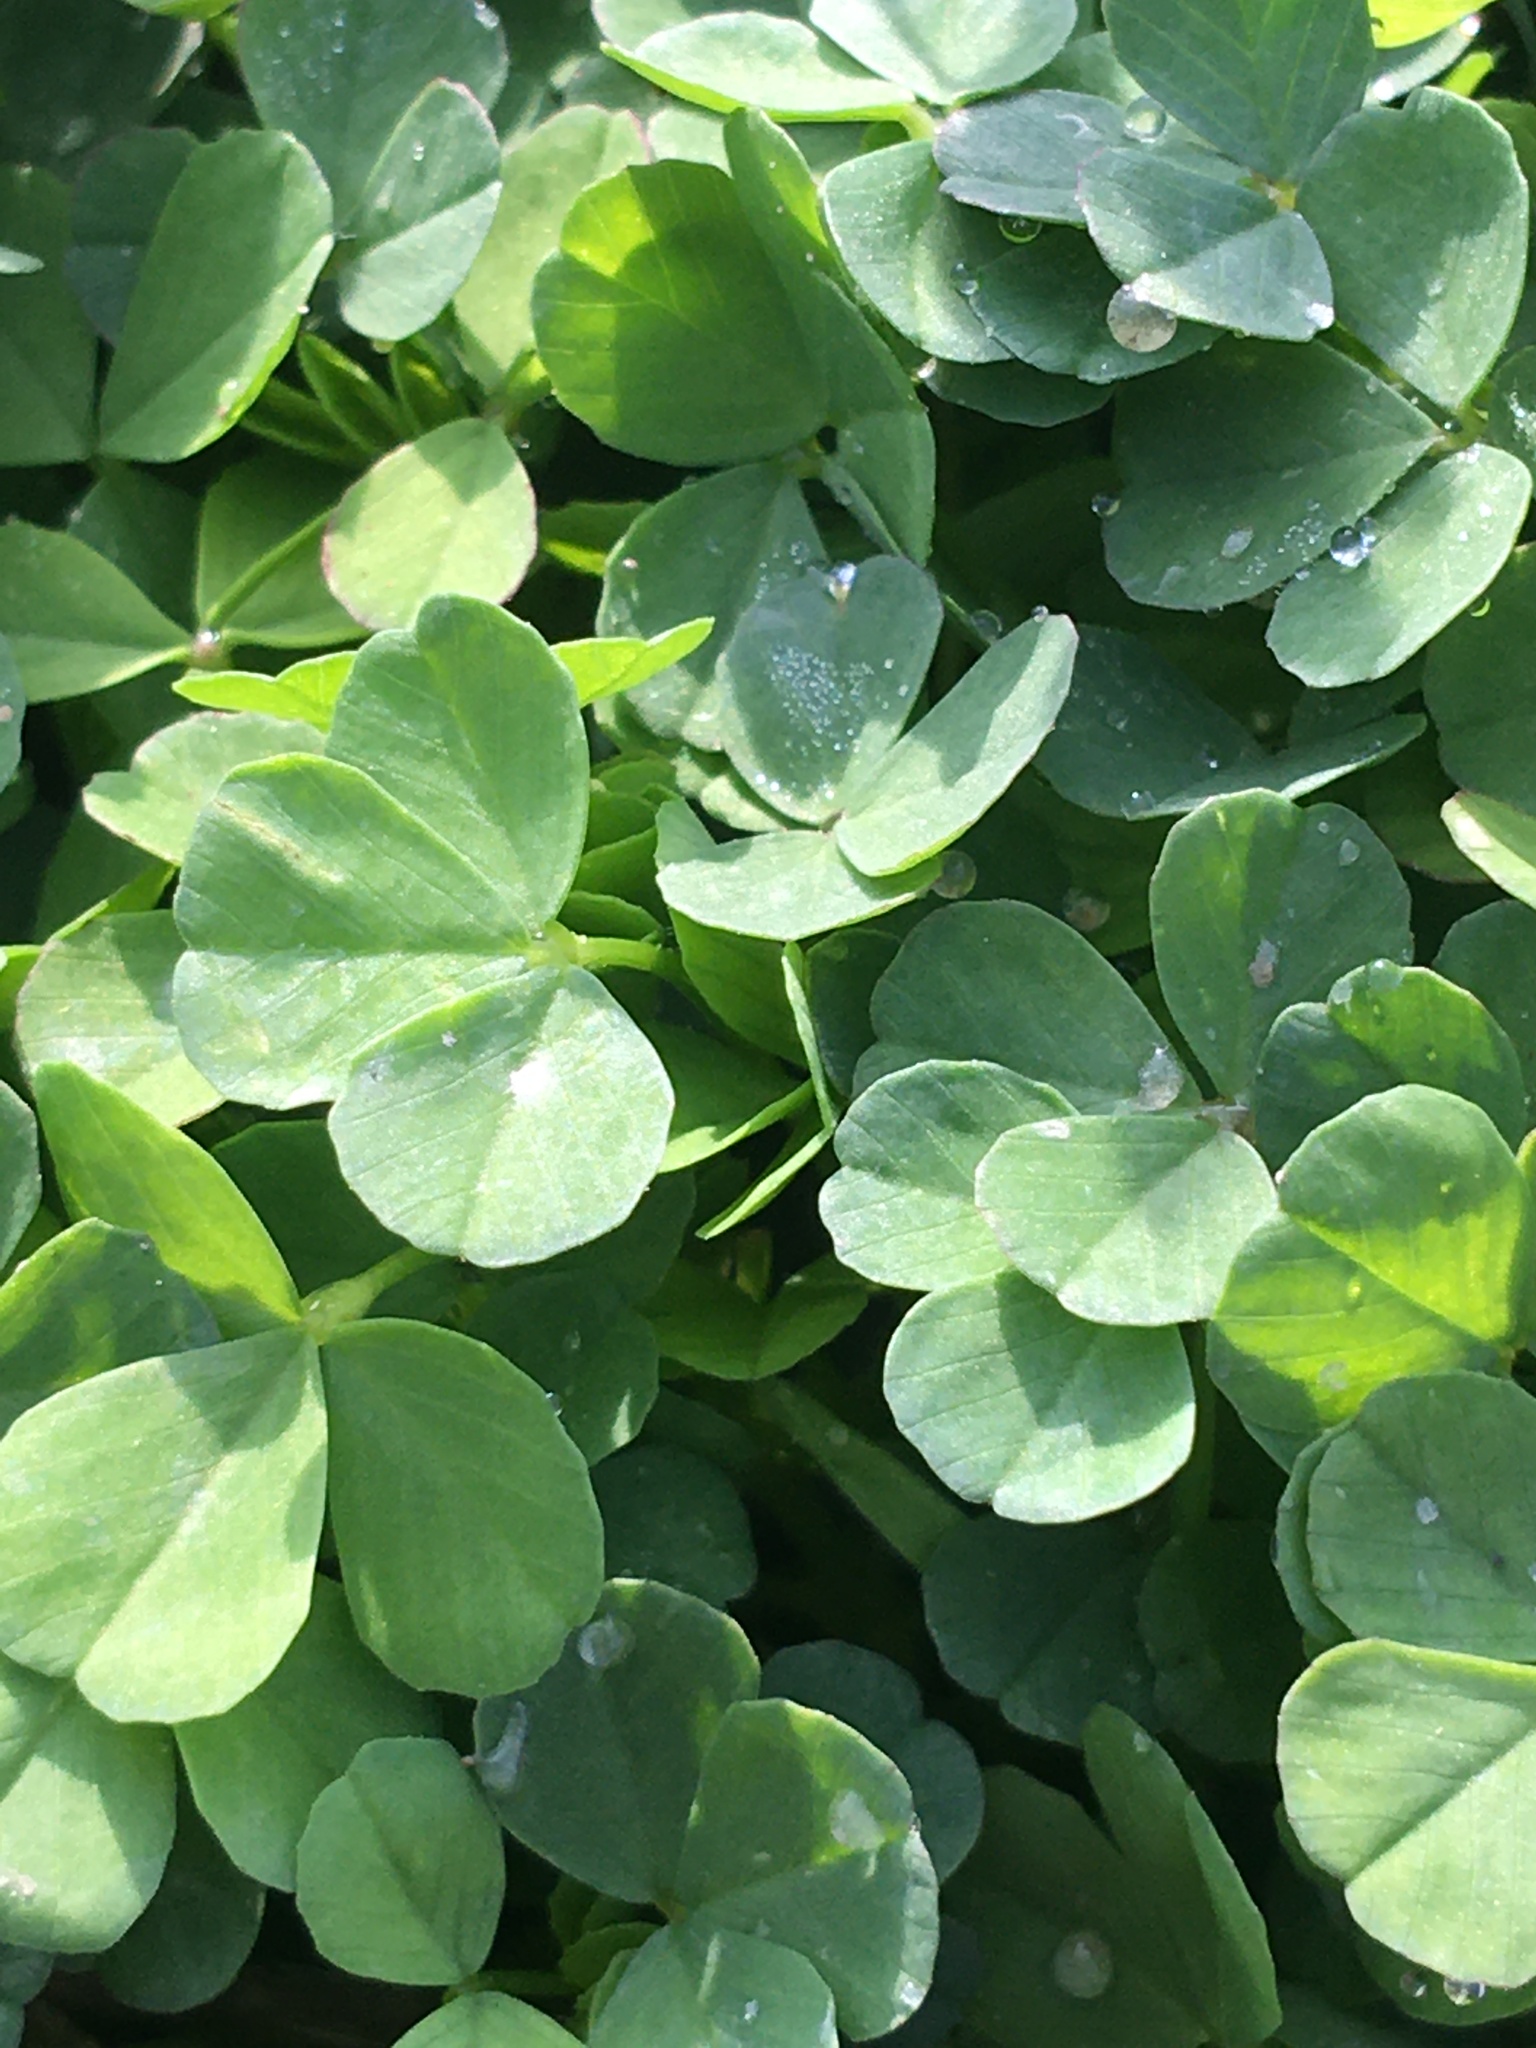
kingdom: Plantae
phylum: Tracheophyta
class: Magnoliopsida
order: Fabales
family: Fabaceae
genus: Trifolium
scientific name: Trifolium repens
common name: White clover
